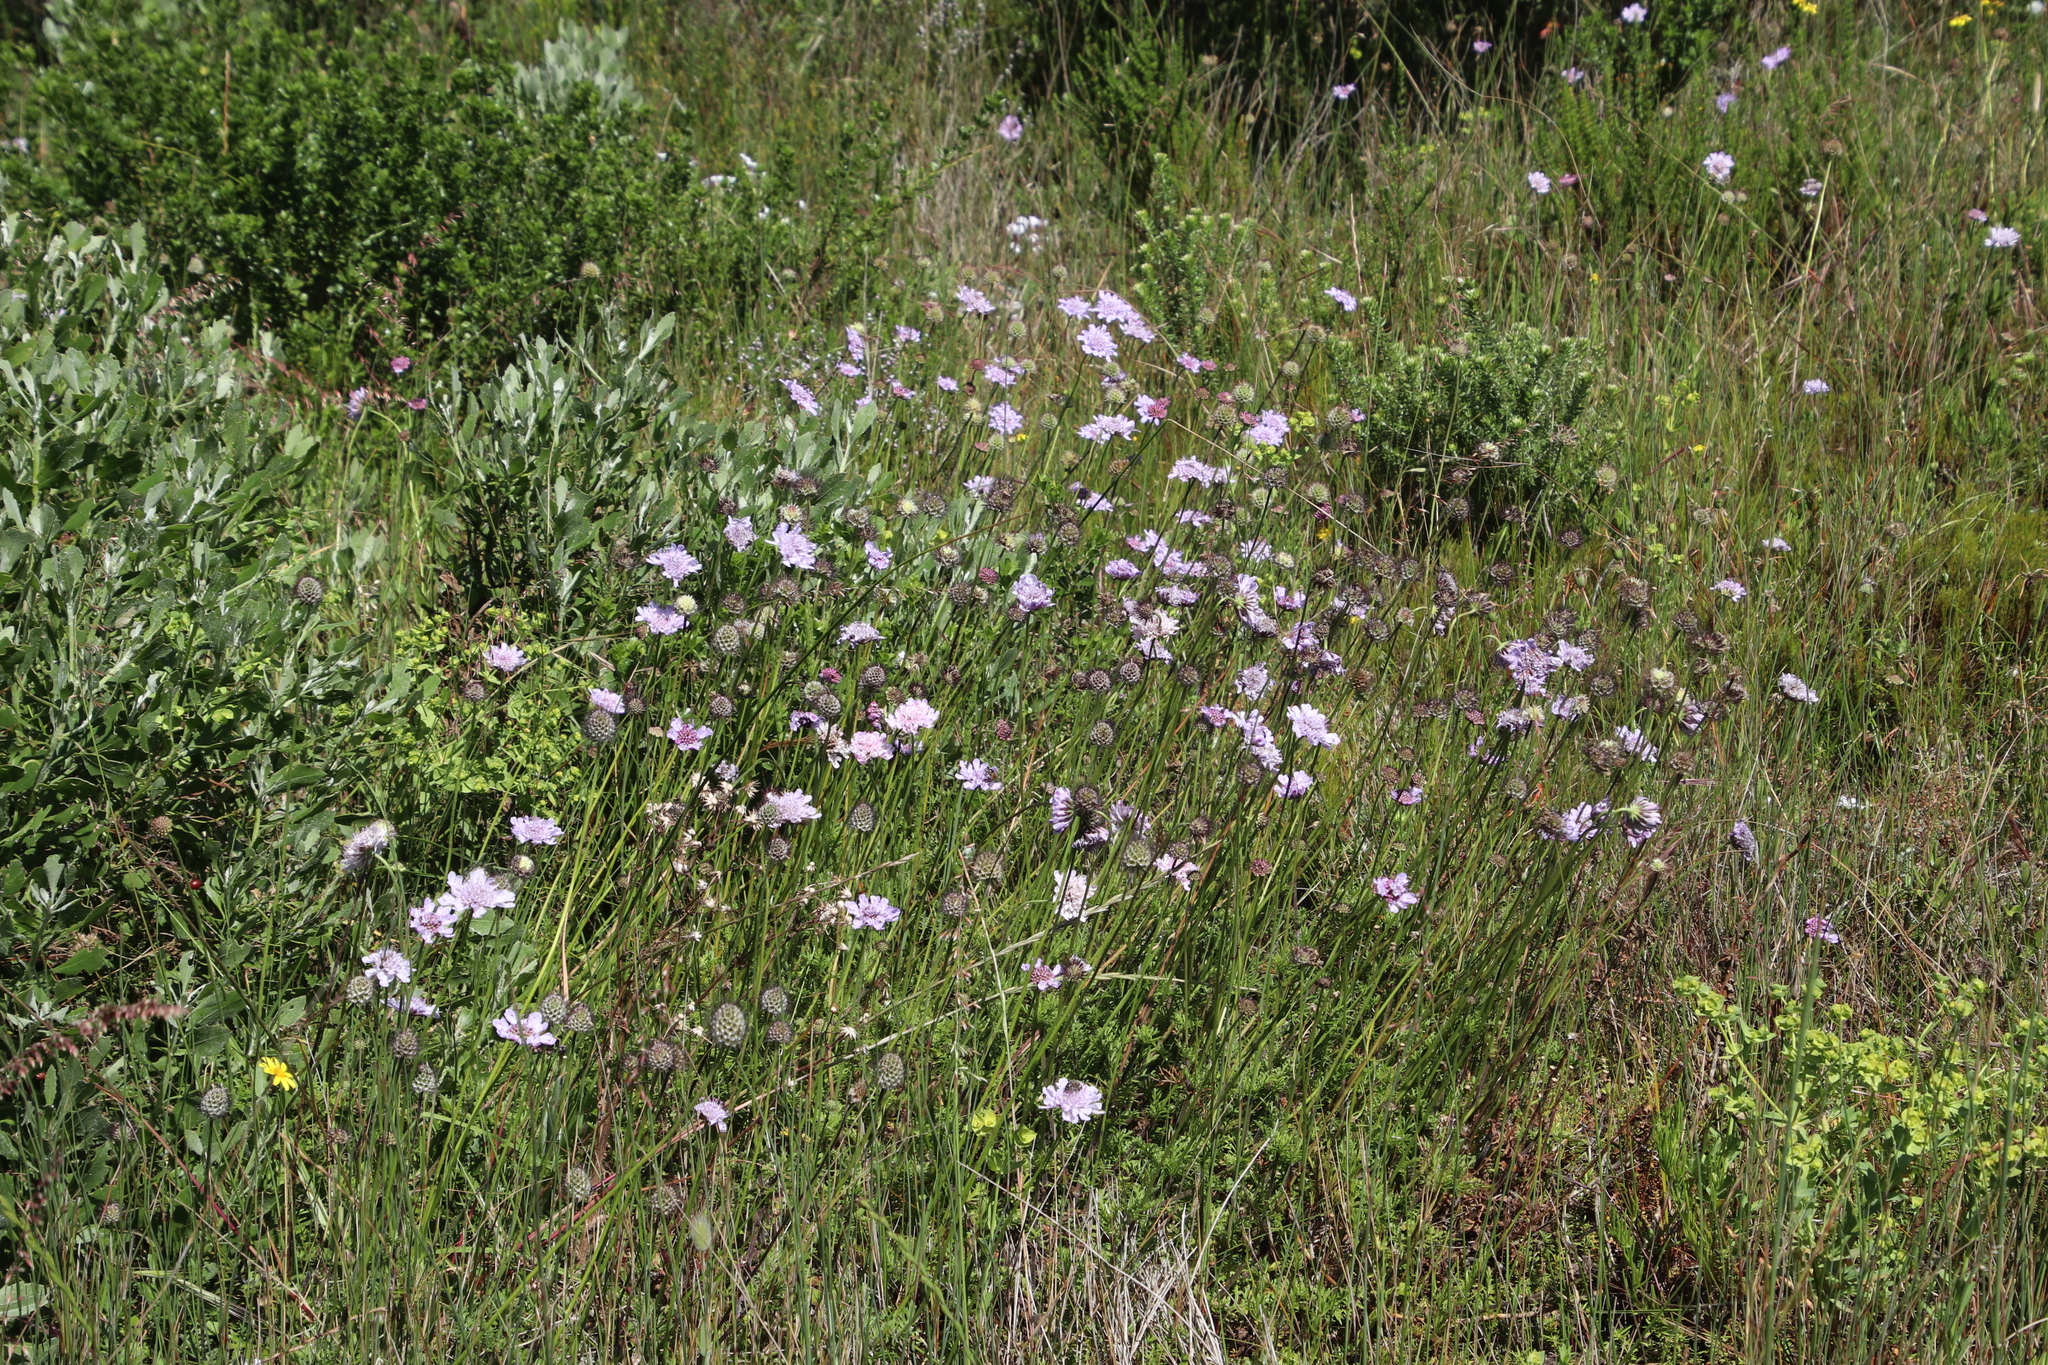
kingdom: Plantae
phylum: Tracheophyta
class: Magnoliopsida
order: Dipsacales
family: Caprifoliaceae
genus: Scabiosa
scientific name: Scabiosa columbaria
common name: Small scabious
